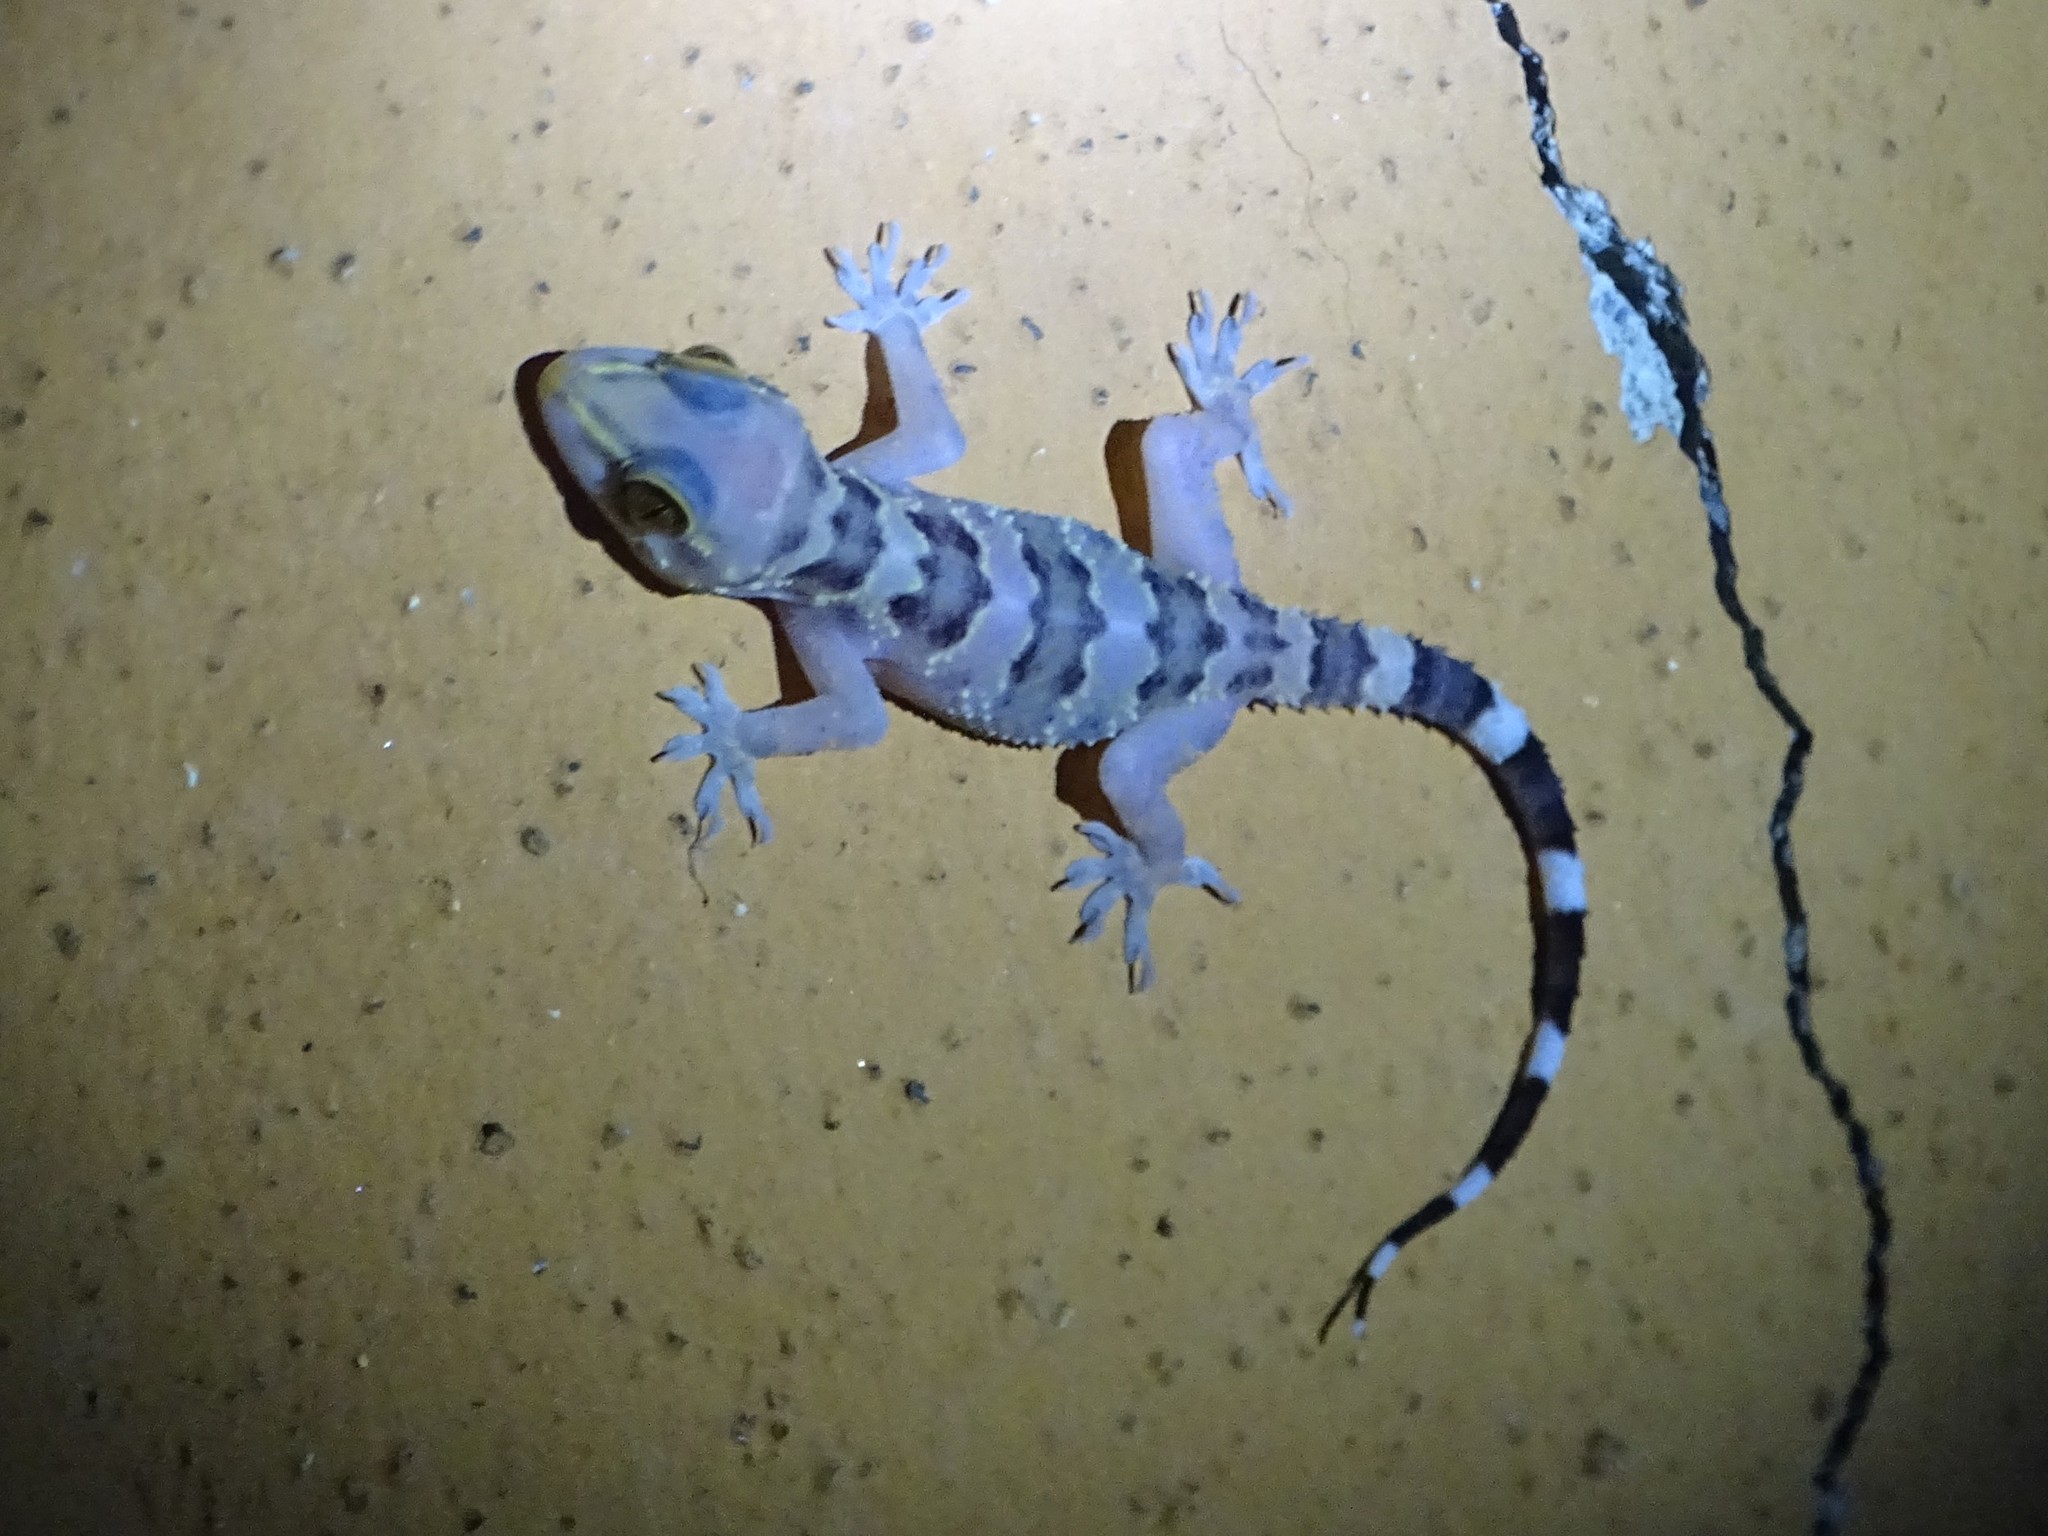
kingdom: Animalia
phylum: Chordata
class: Squamata
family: Gekkonidae
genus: Hemidactylus
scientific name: Hemidactylus maculatus
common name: Spotted leaf-toed gecko
